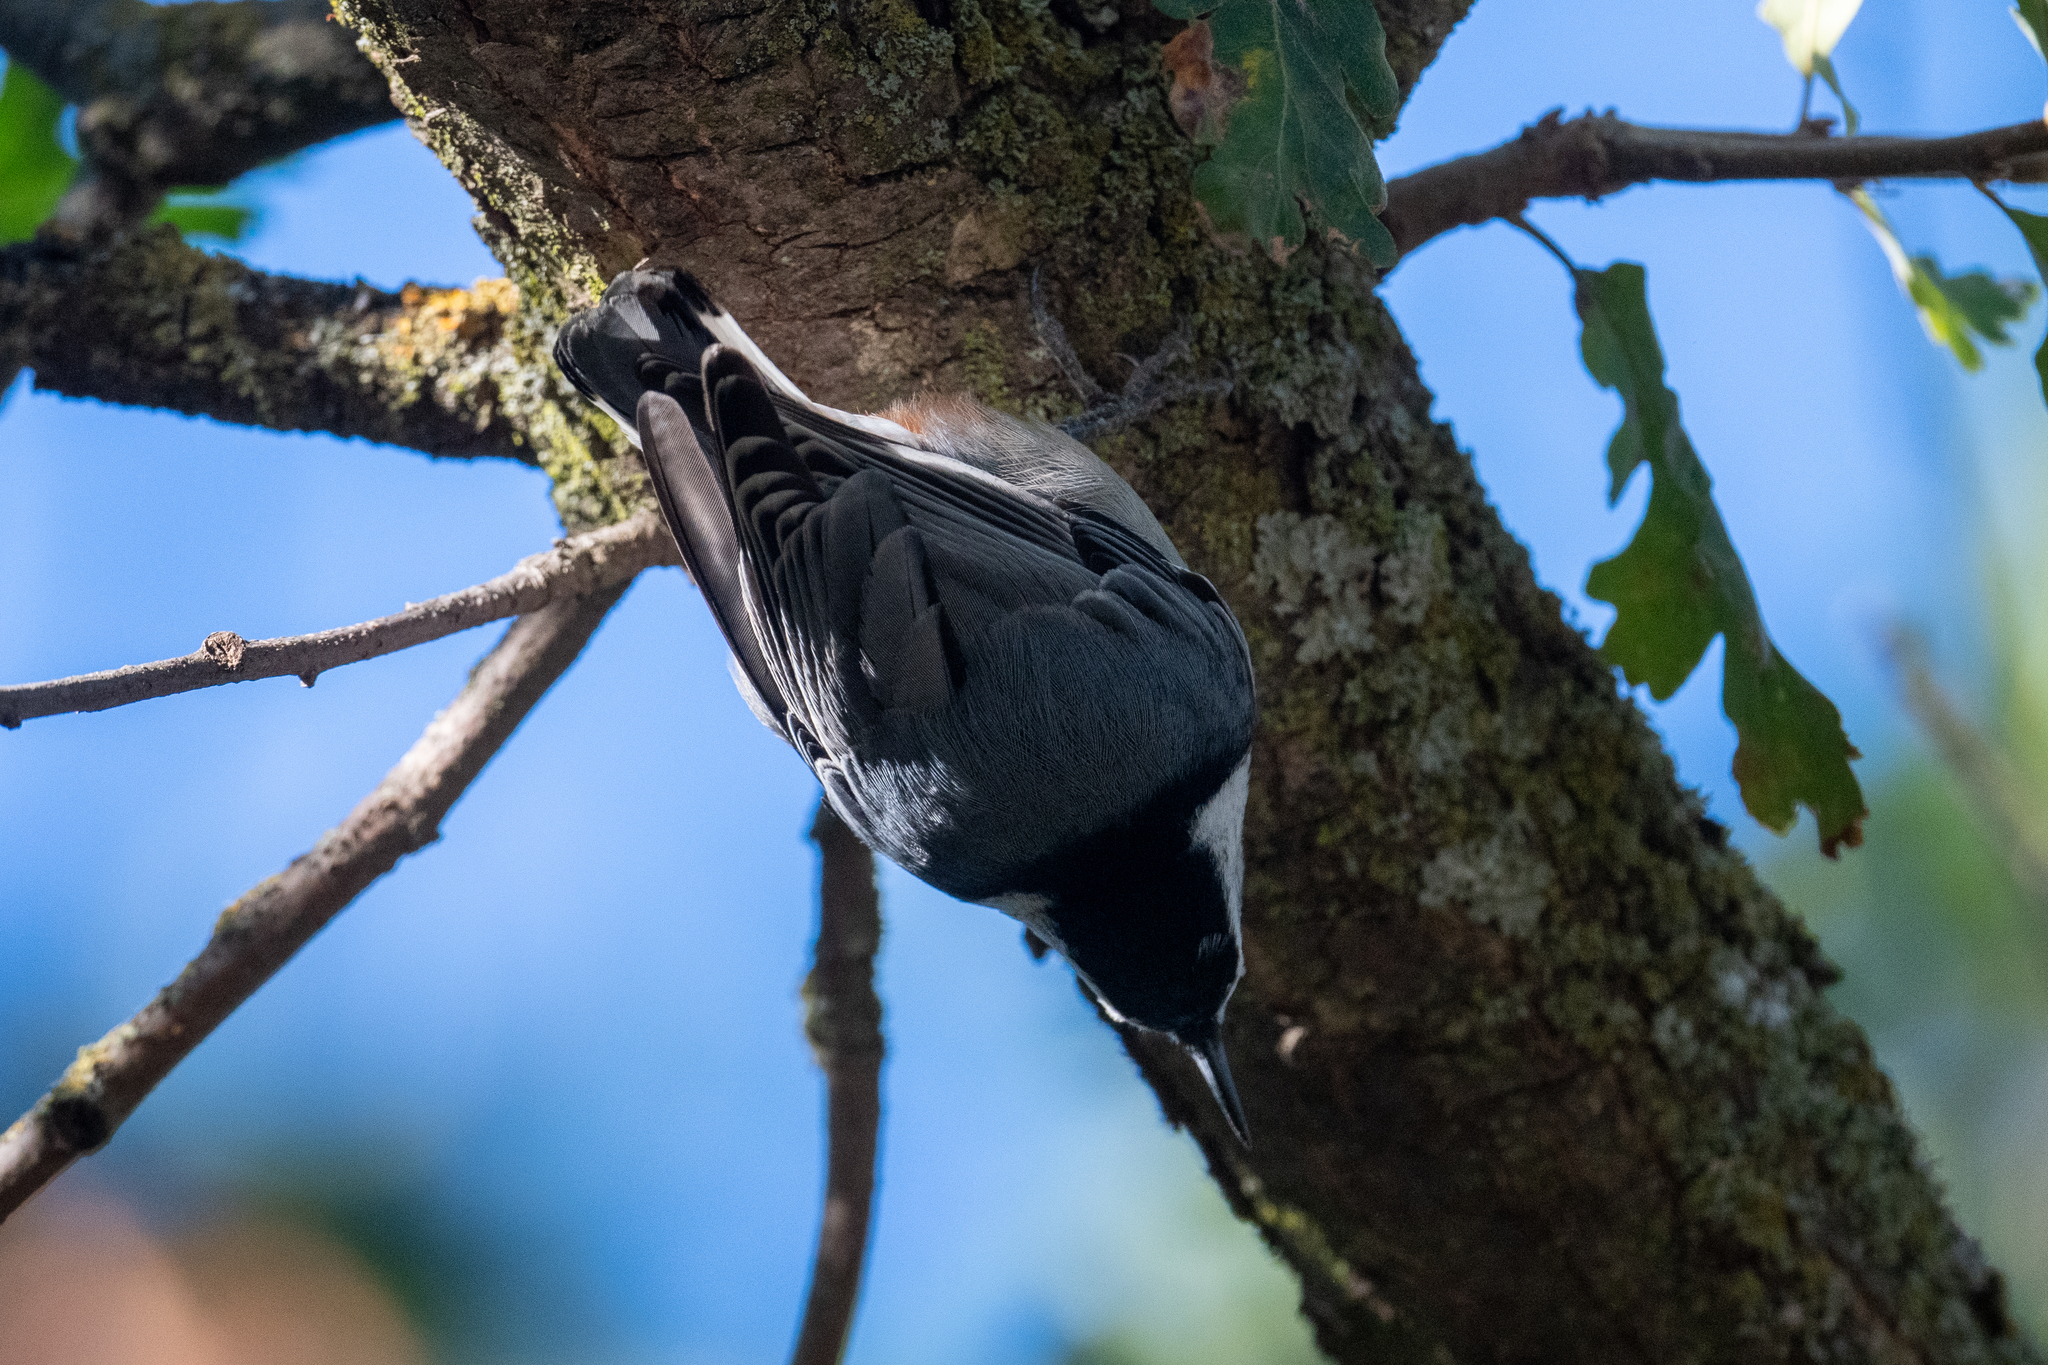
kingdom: Animalia
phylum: Chordata
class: Aves
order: Passeriformes
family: Sittidae
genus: Sitta
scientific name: Sitta carolinensis
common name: White-breasted nuthatch
